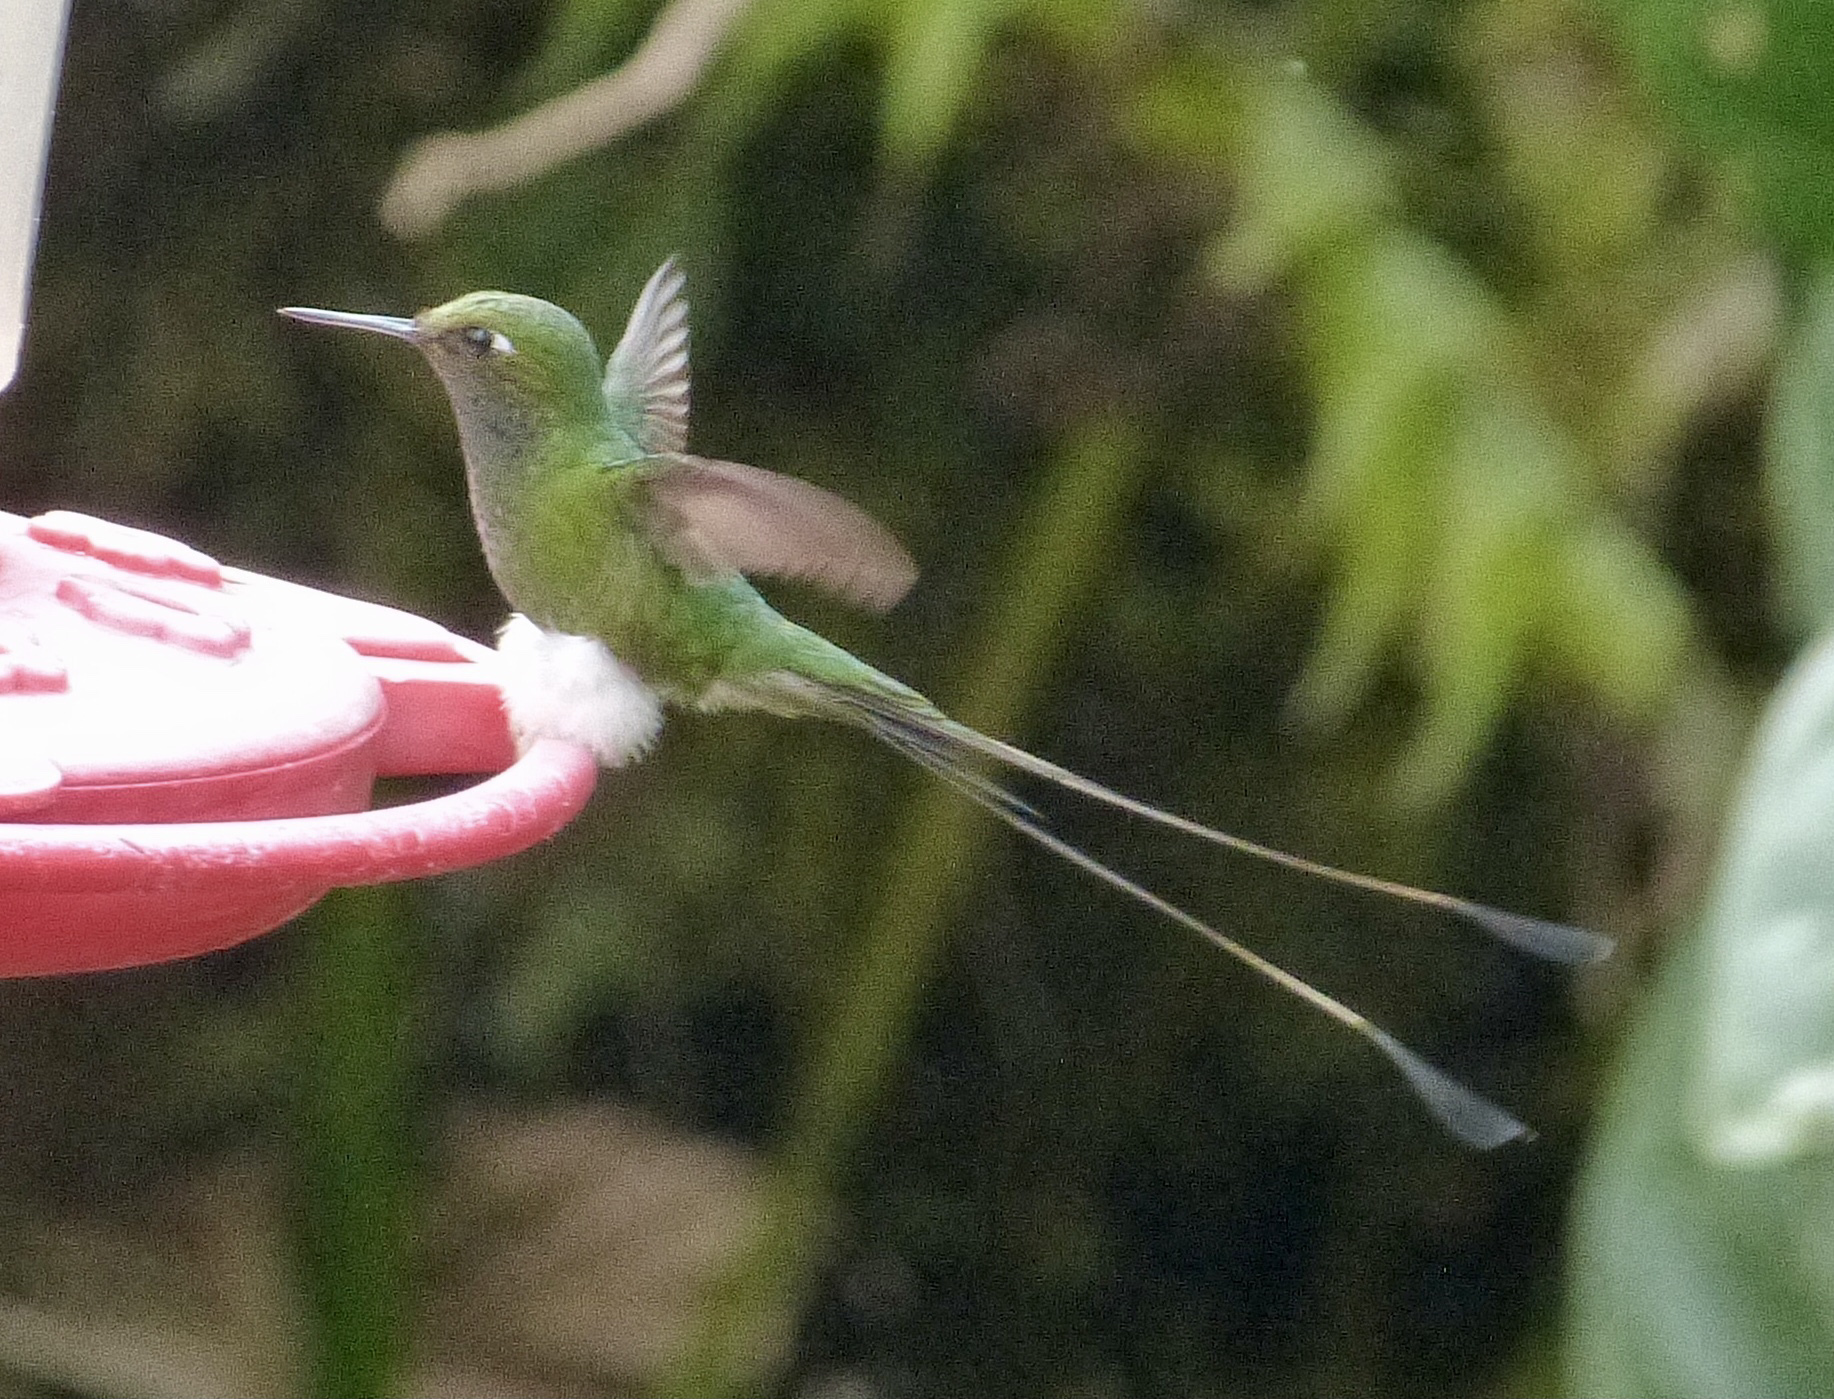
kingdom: Animalia
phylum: Chordata
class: Aves
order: Apodiformes
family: Trochilidae
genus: Ocreatus
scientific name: Ocreatus underwoodii
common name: Booted racket-tail
